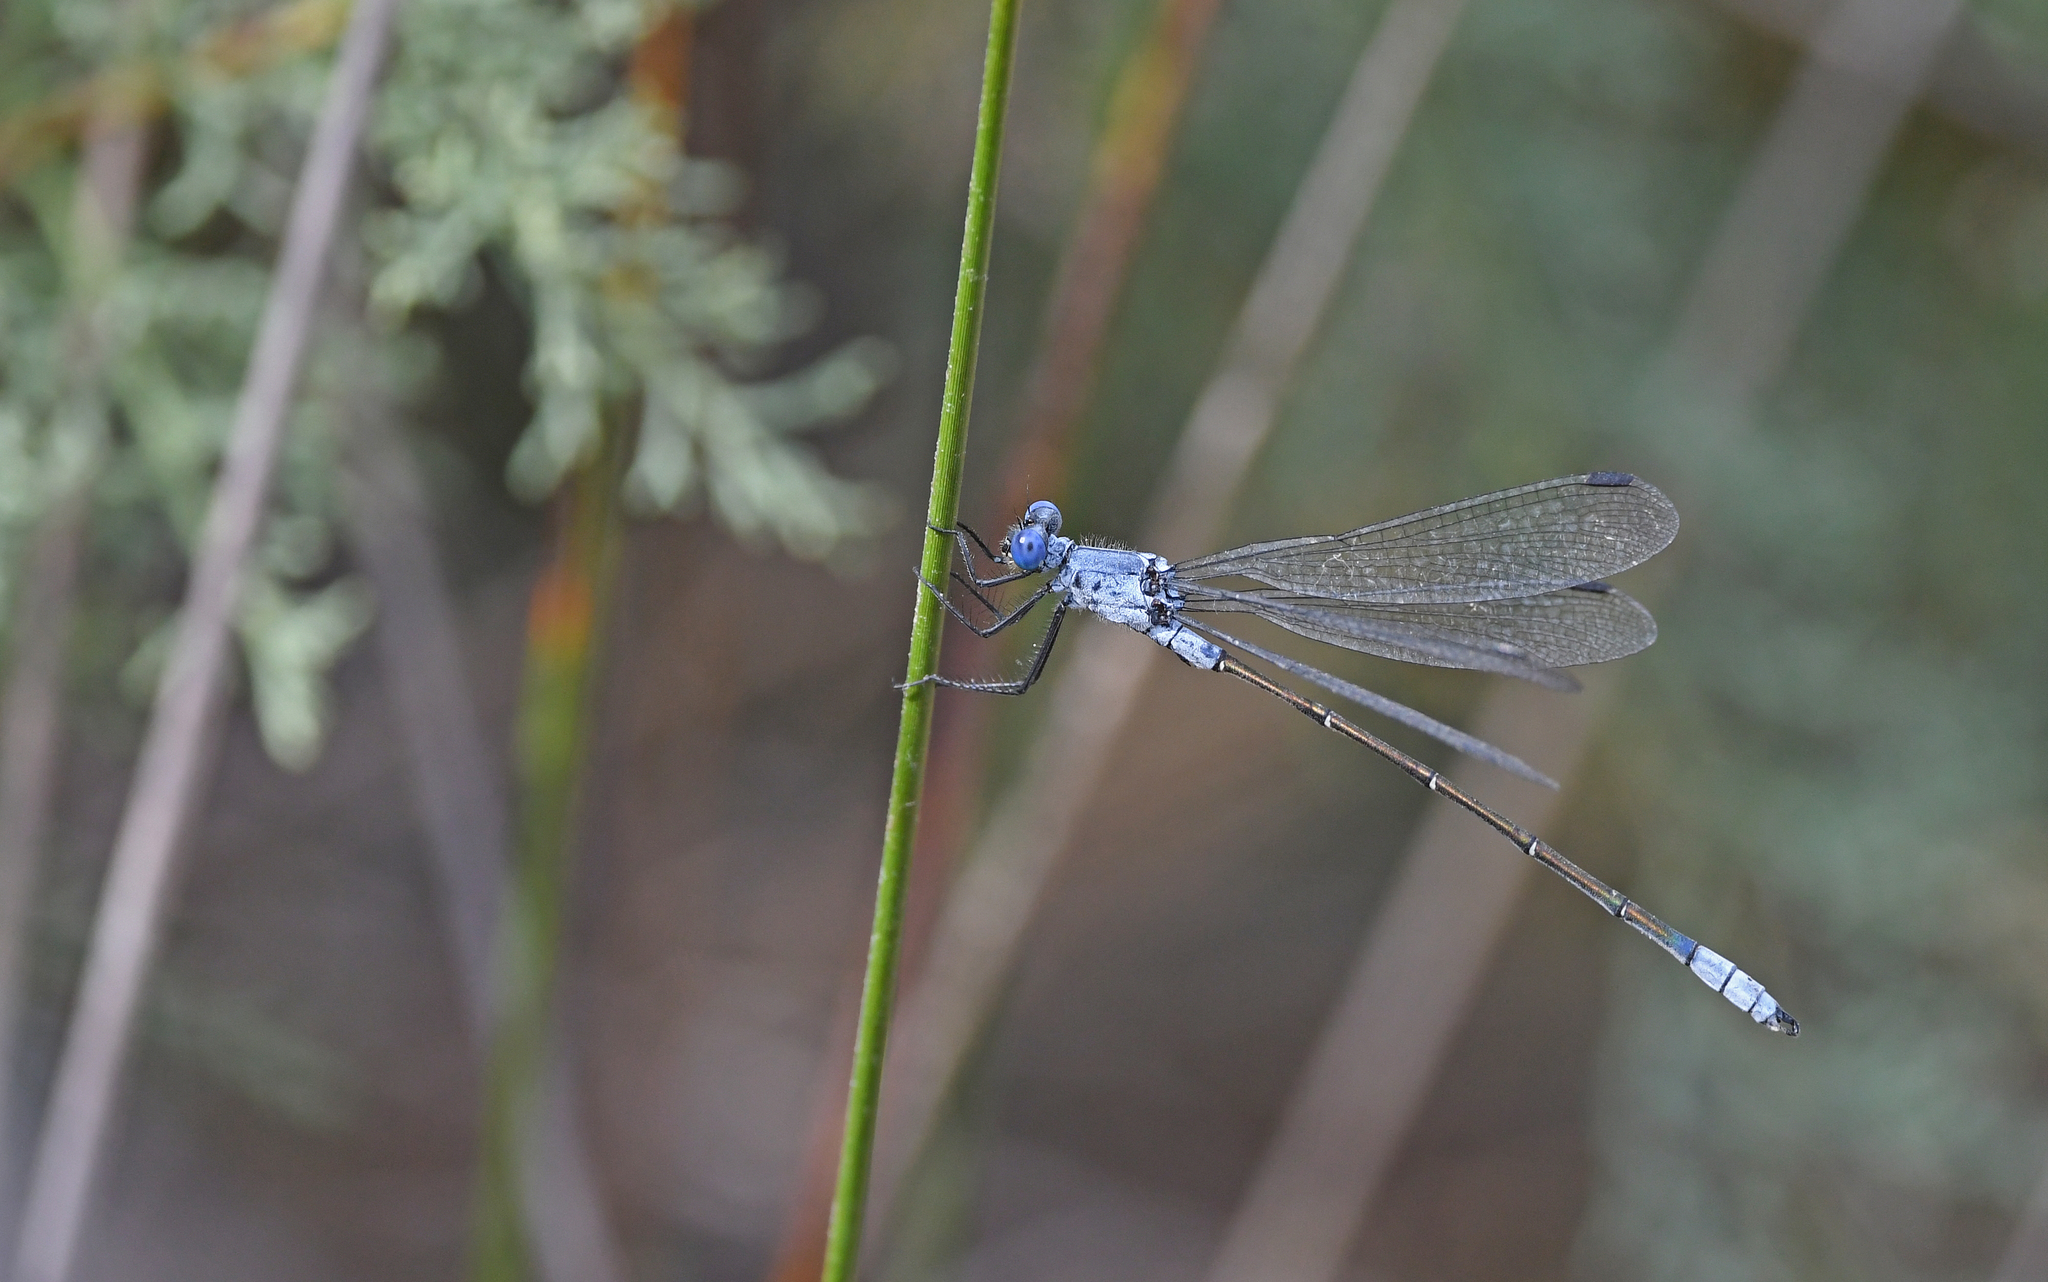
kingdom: Animalia
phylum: Arthropoda
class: Insecta
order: Odonata
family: Lestidae
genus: Lestes
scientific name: Lestes macrostigma
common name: Dark spreadwing
